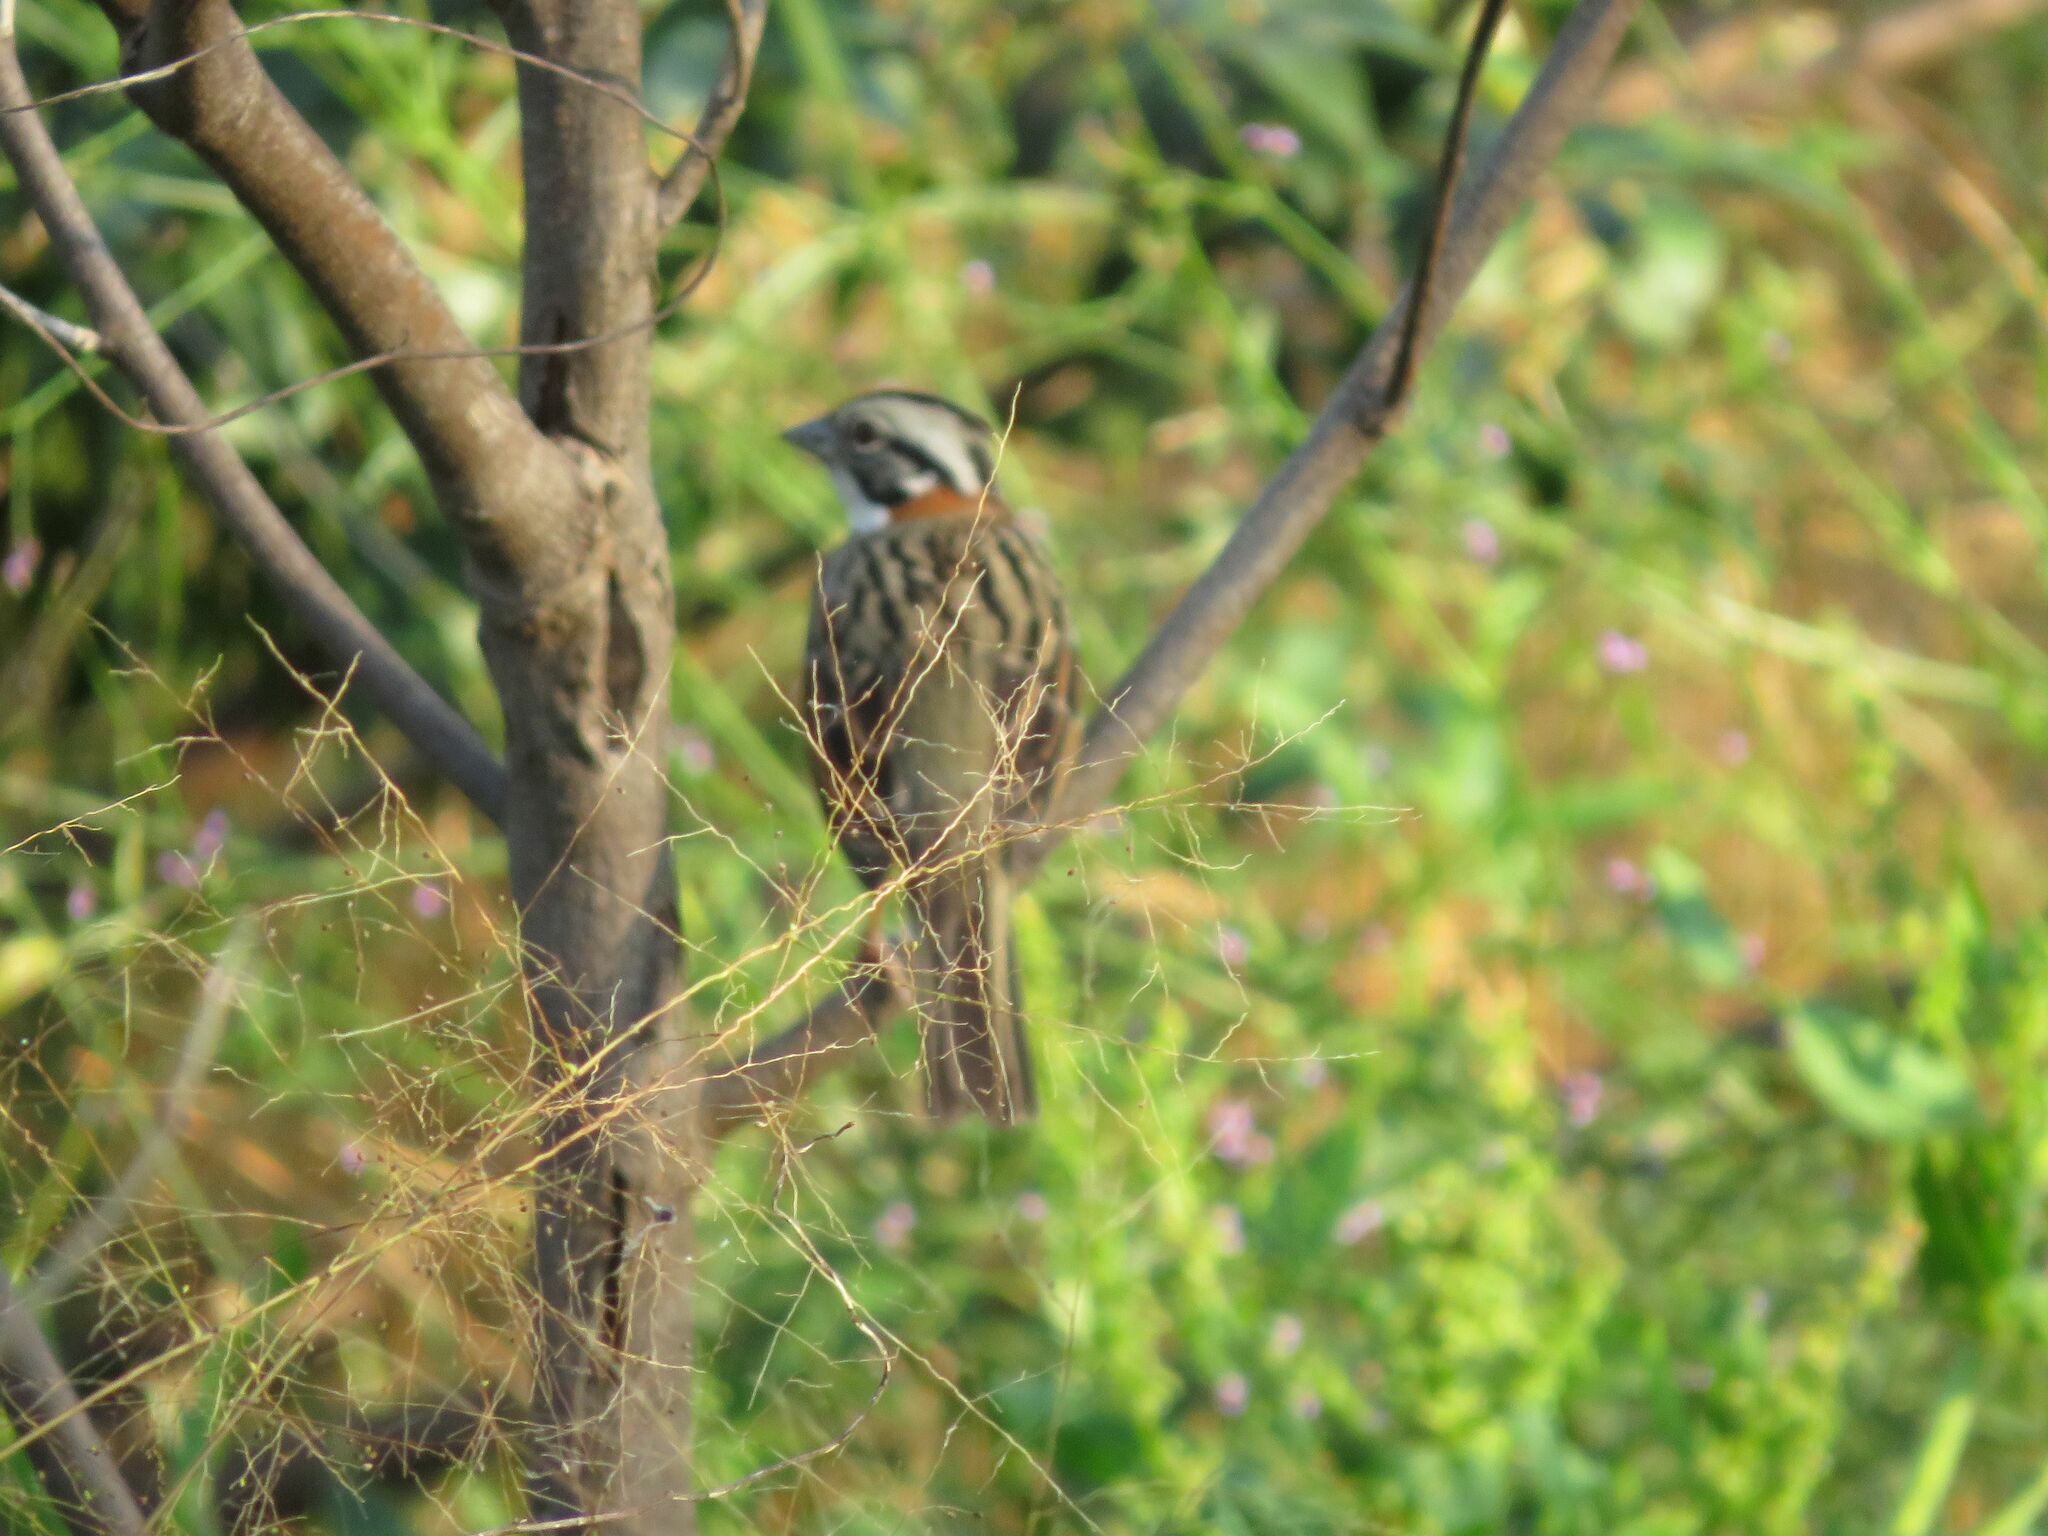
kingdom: Animalia
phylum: Chordata
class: Aves
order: Passeriformes
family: Passerellidae
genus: Zonotrichia
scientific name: Zonotrichia capensis
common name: Rufous-collared sparrow
